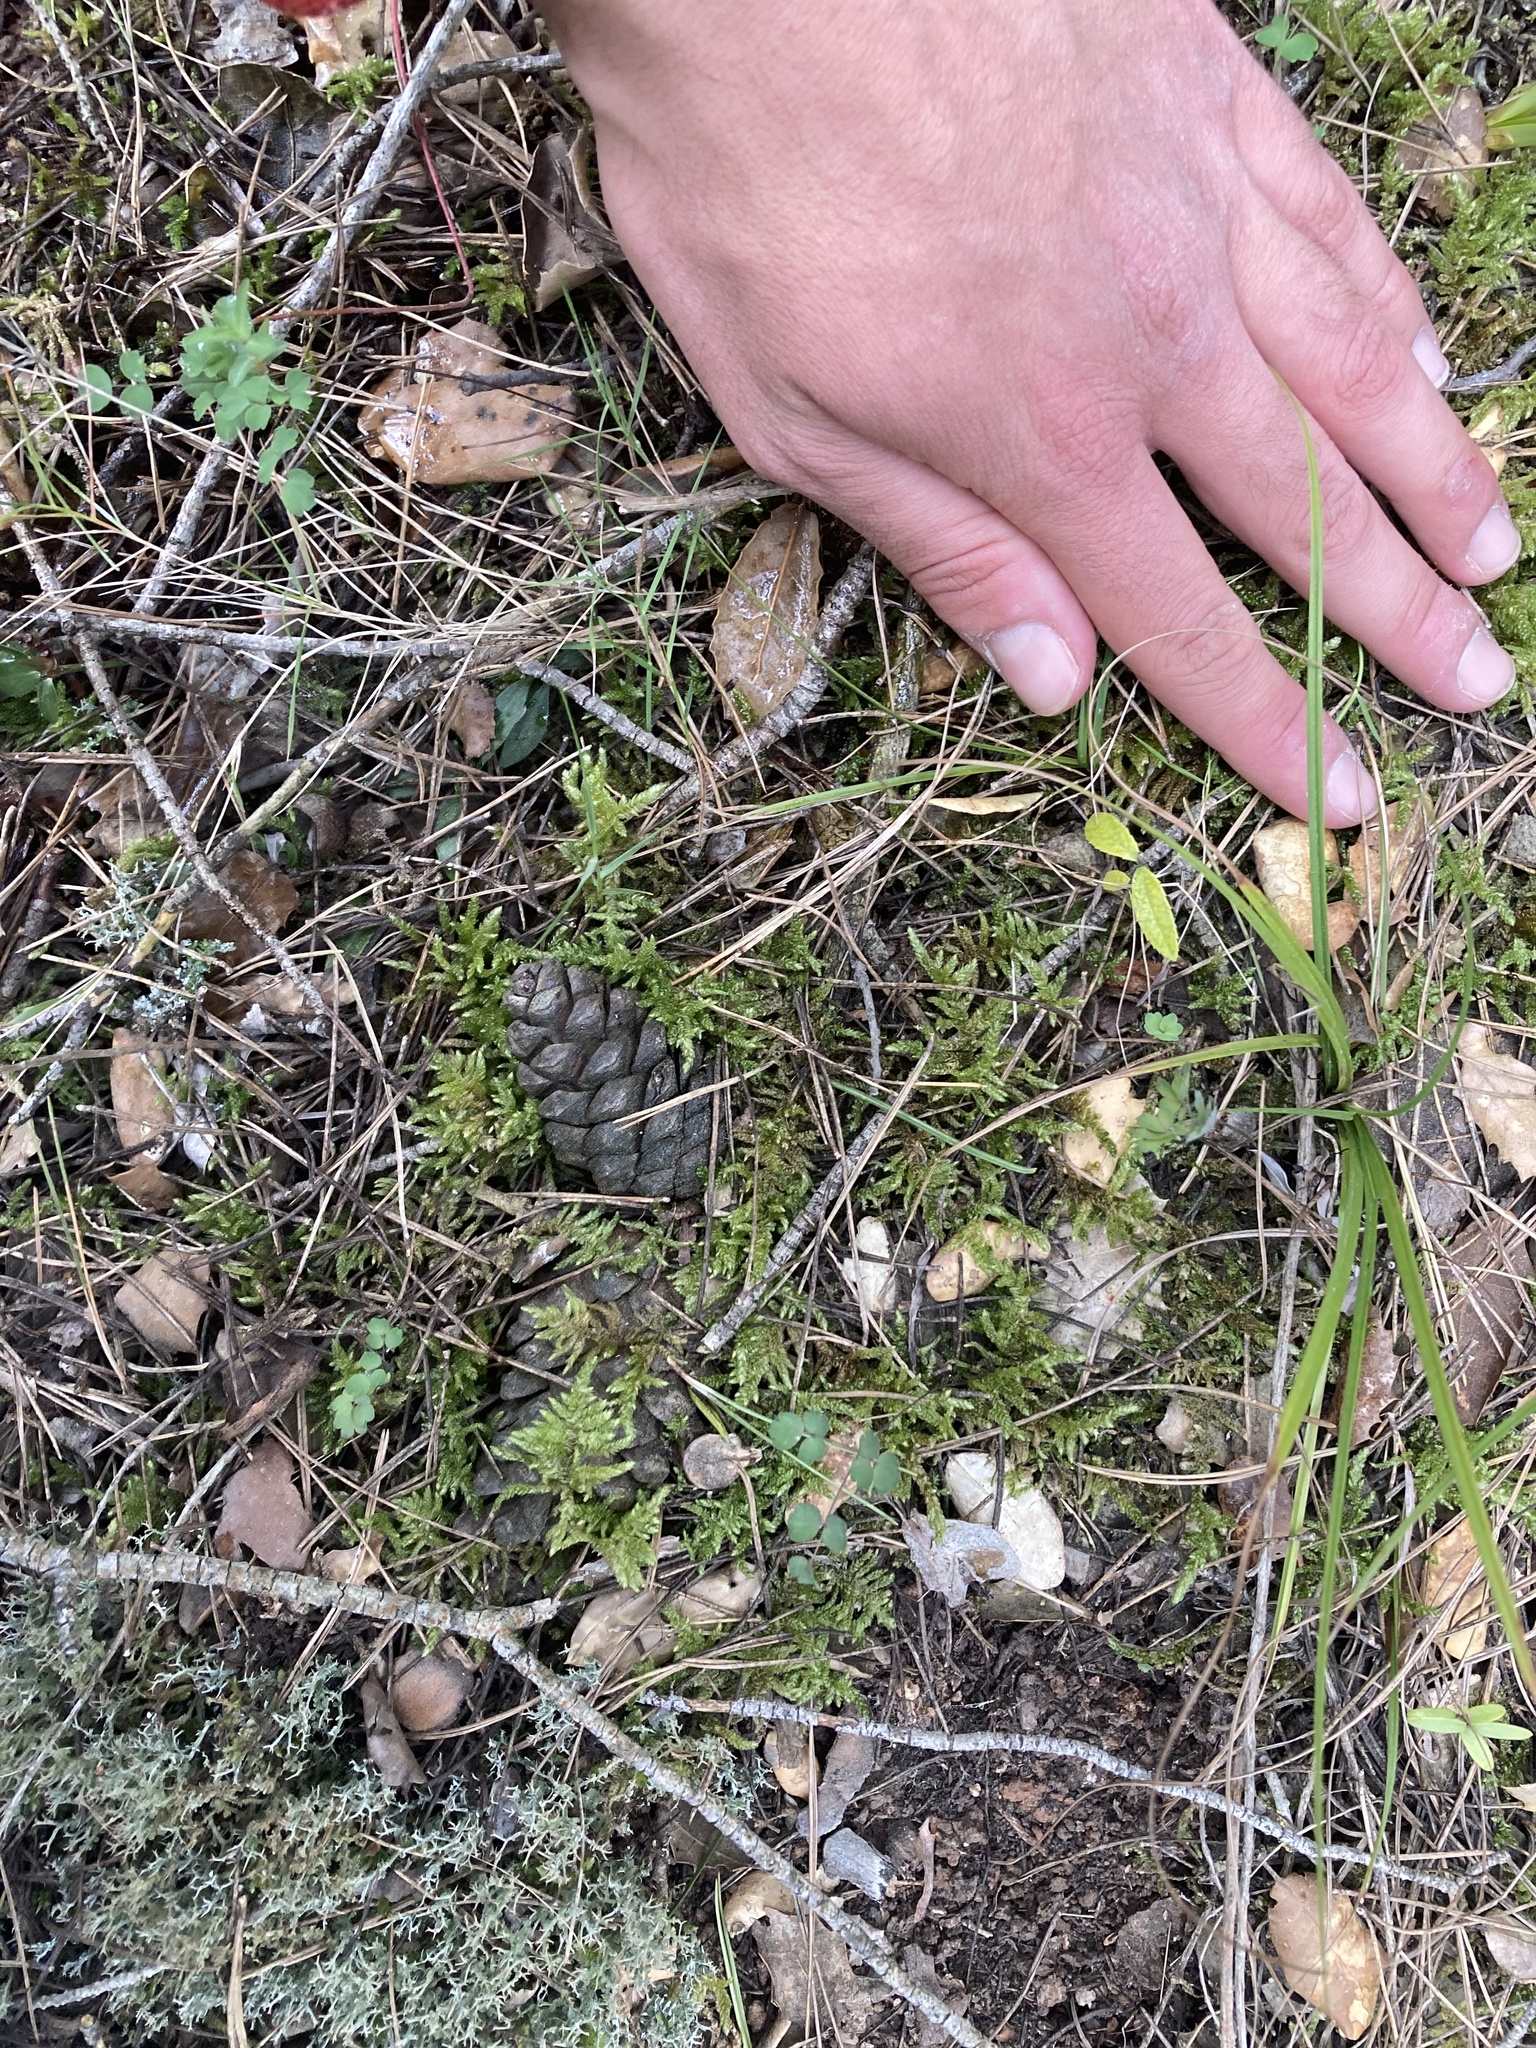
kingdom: Plantae
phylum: Bryophyta
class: Bryopsida
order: Hypnales
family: Brachytheciaceae
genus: Pseudoscleropodium
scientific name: Pseudoscleropodium purum
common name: Neat feather-moss
